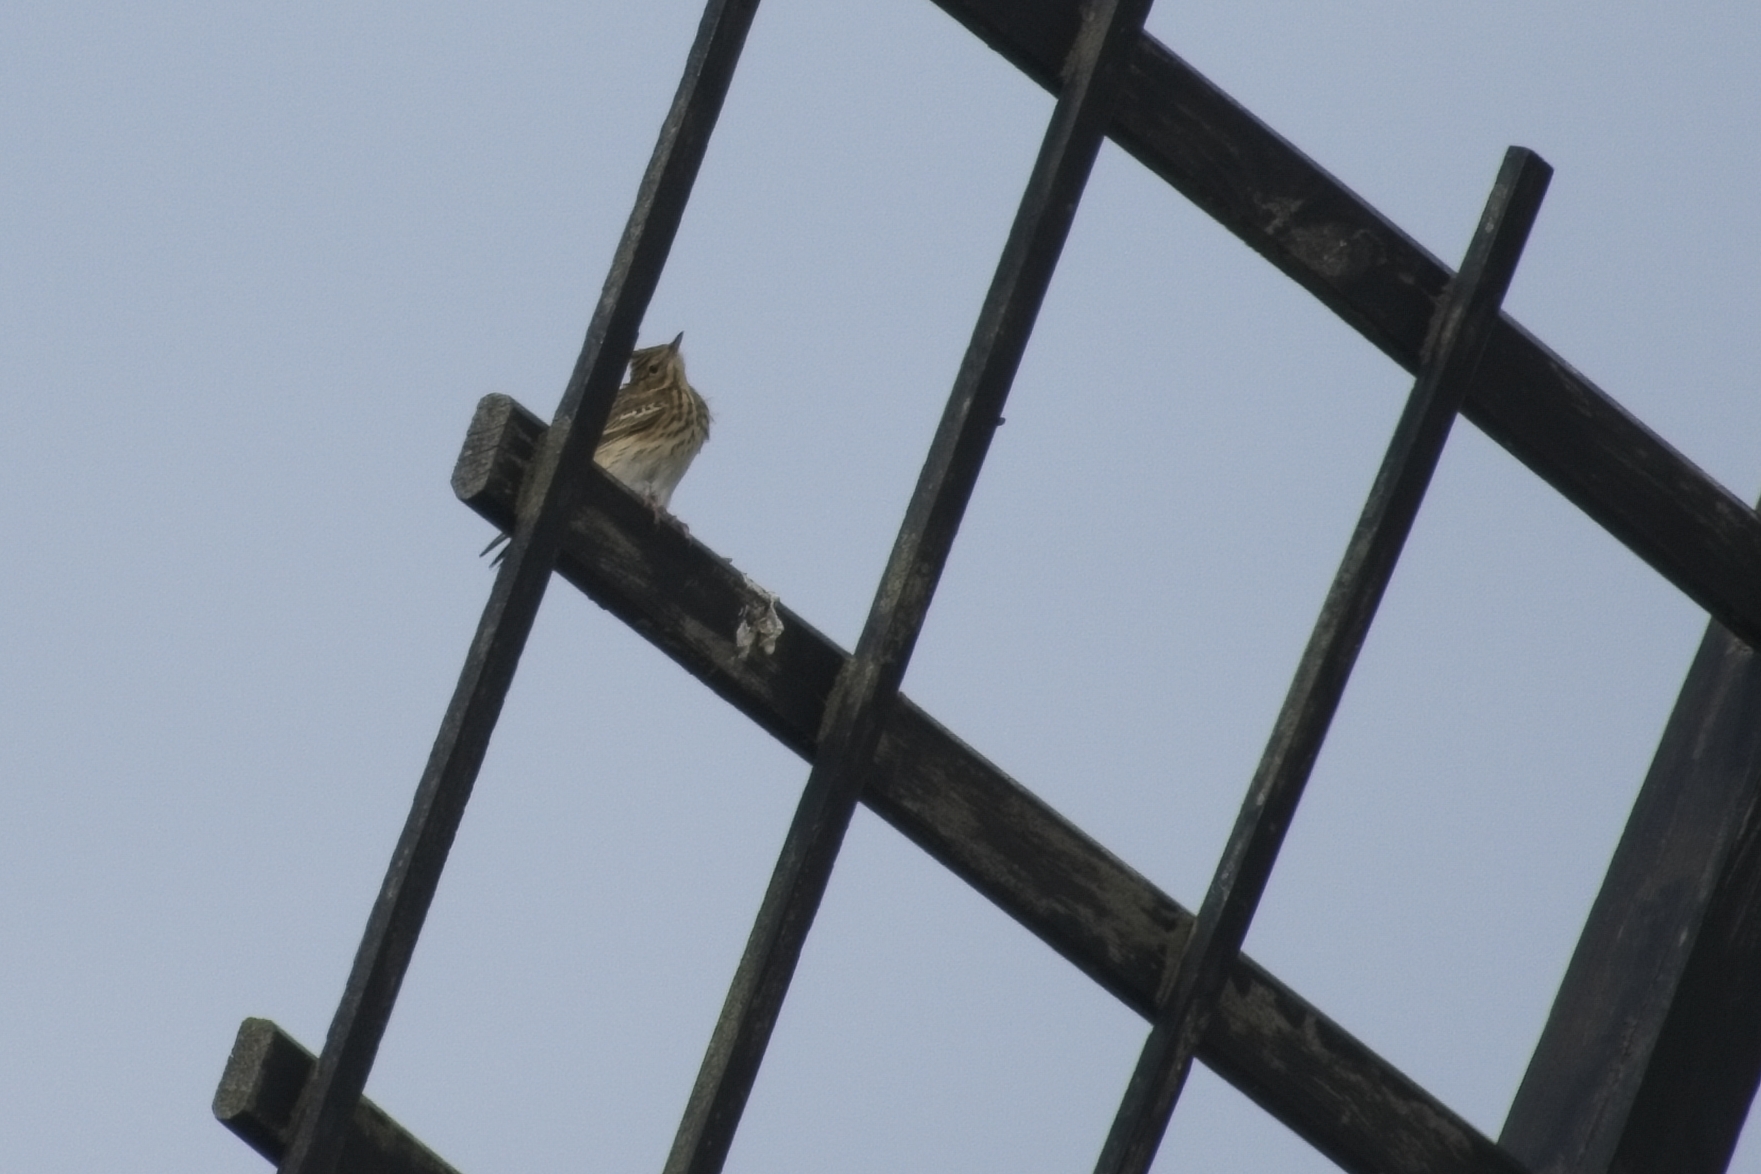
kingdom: Animalia
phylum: Chordata
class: Aves
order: Passeriformes
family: Motacillidae
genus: Anthus
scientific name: Anthus trivialis
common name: Tree pipit
